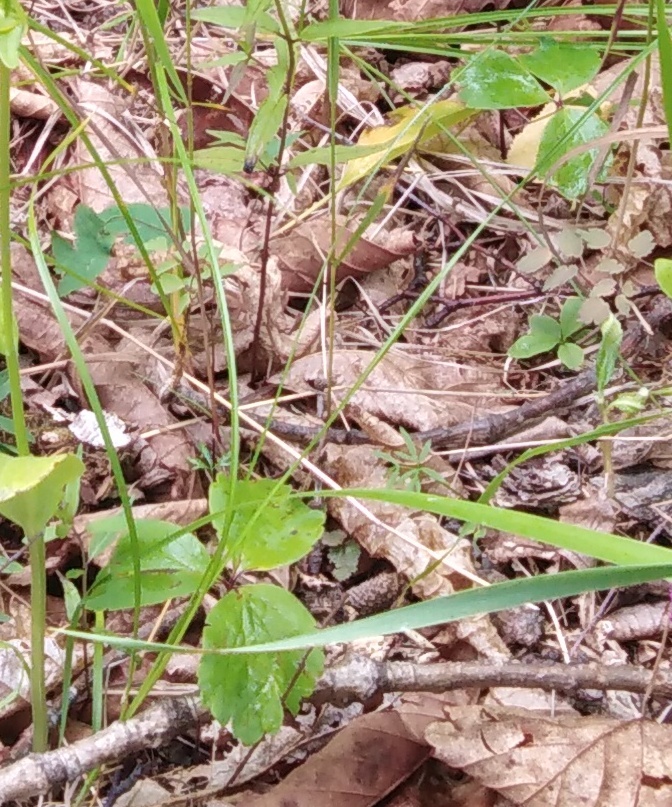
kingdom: Plantae
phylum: Tracheophyta
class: Magnoliopsida
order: Ranunculales
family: Ranunculaceae
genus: Anemone
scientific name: Anemone udensis
